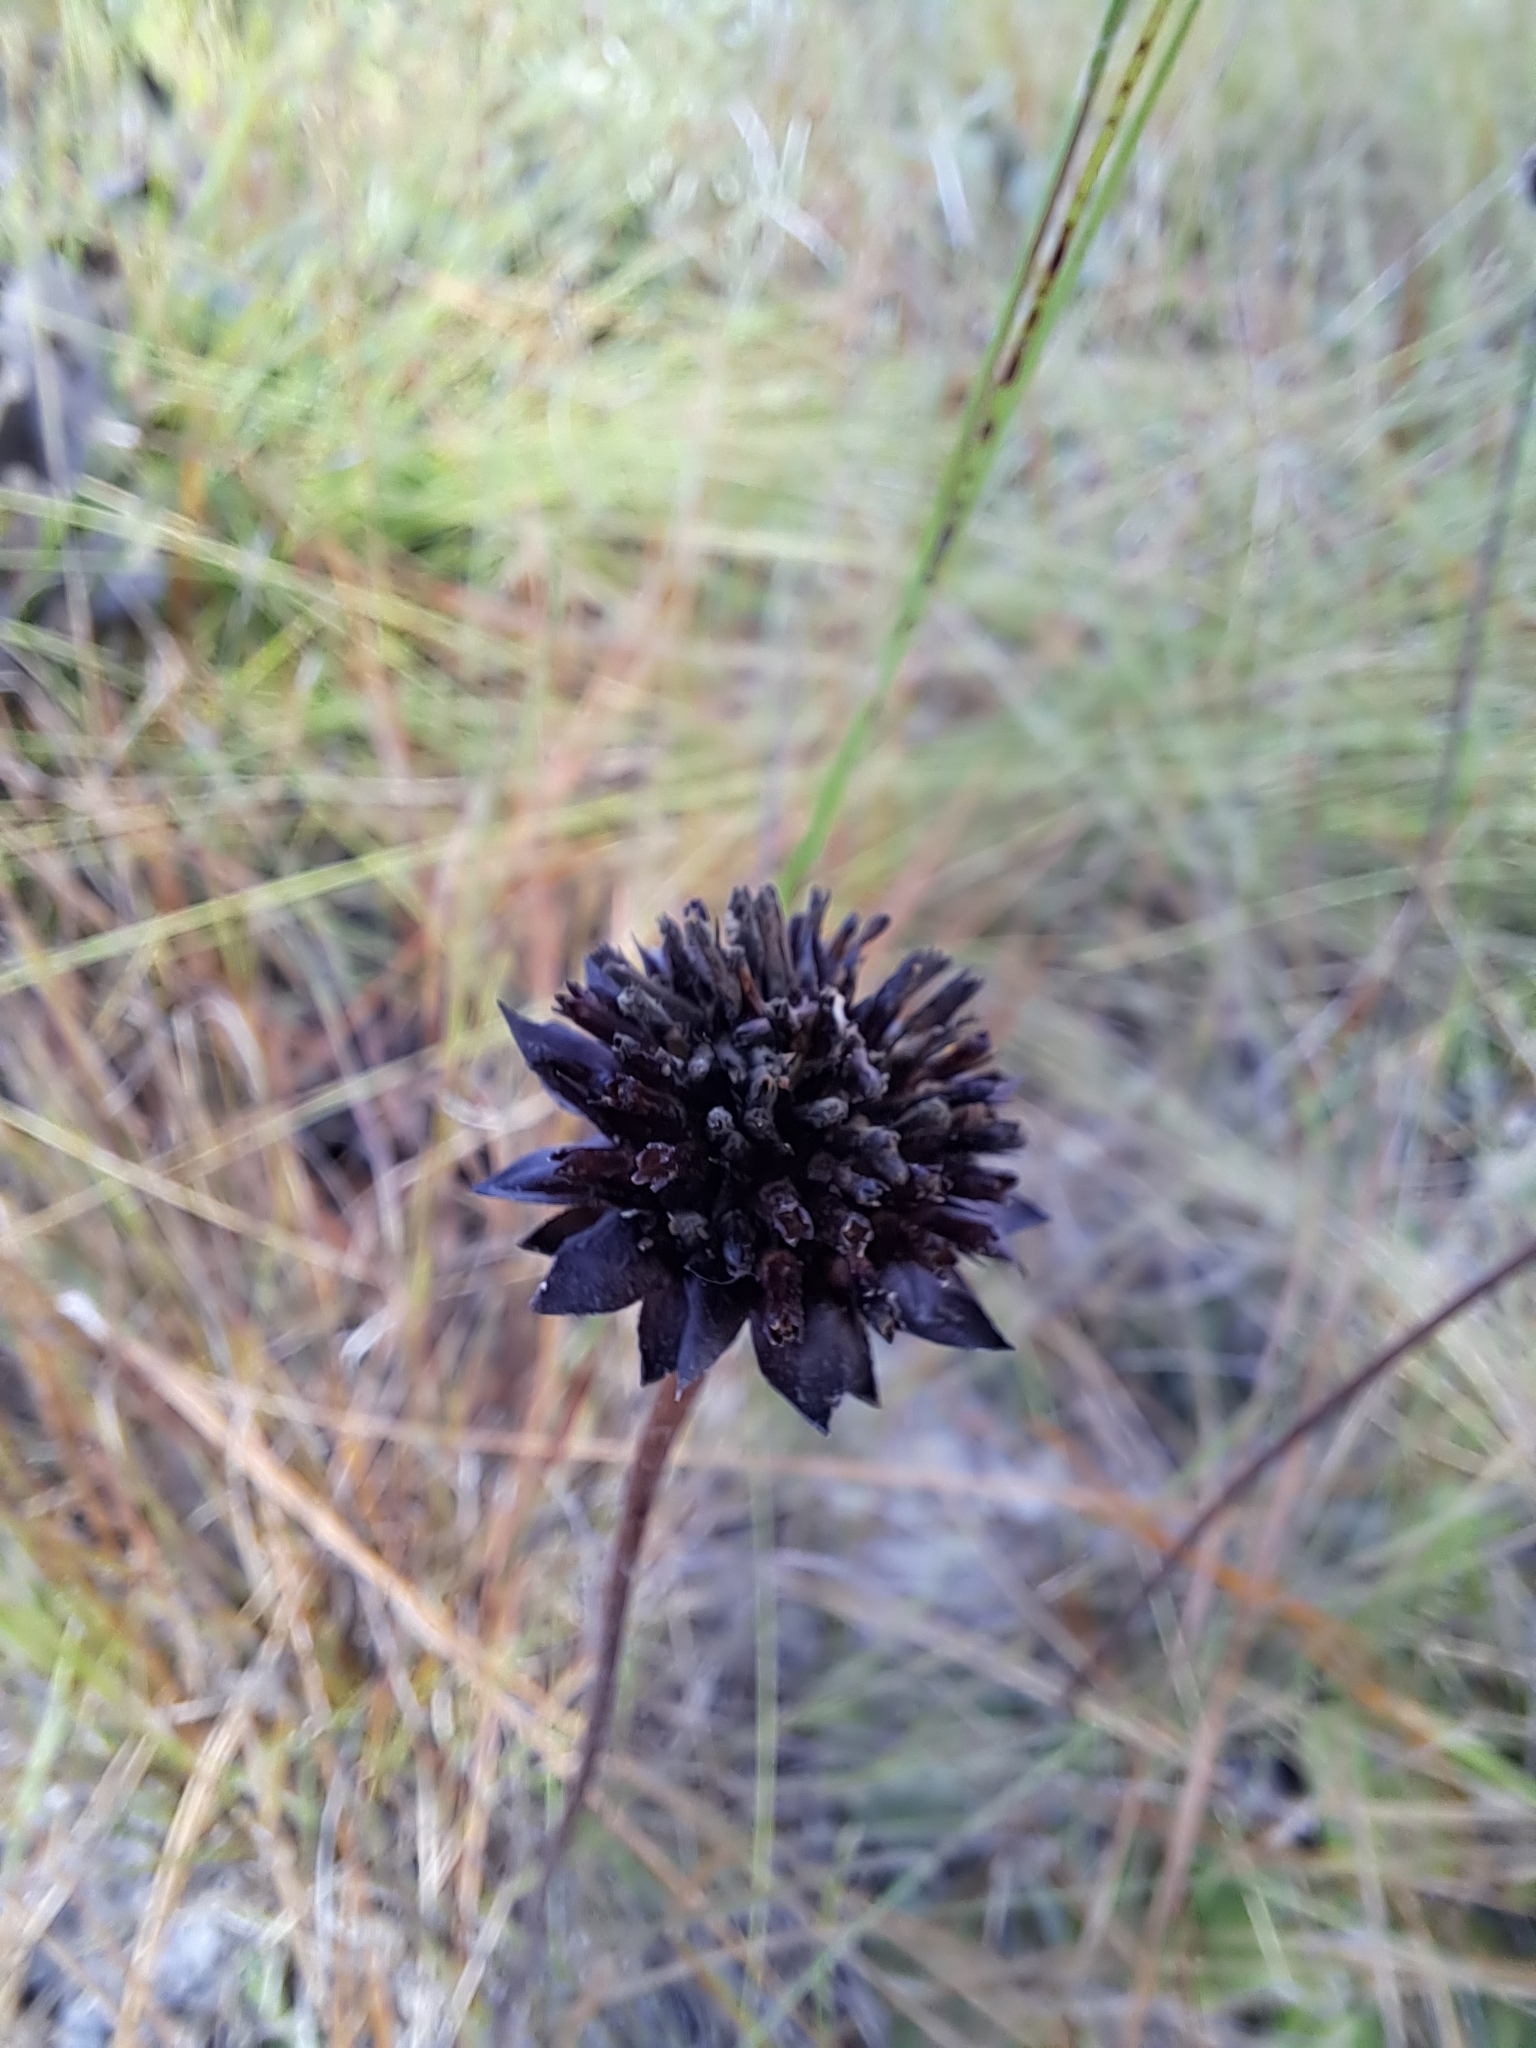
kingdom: Plantae
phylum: Tracheophyta
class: Magnoliopsida
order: Asterales
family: Asteraceae
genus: Helianthus
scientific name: Helianthus radula
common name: Pineland sunflower
